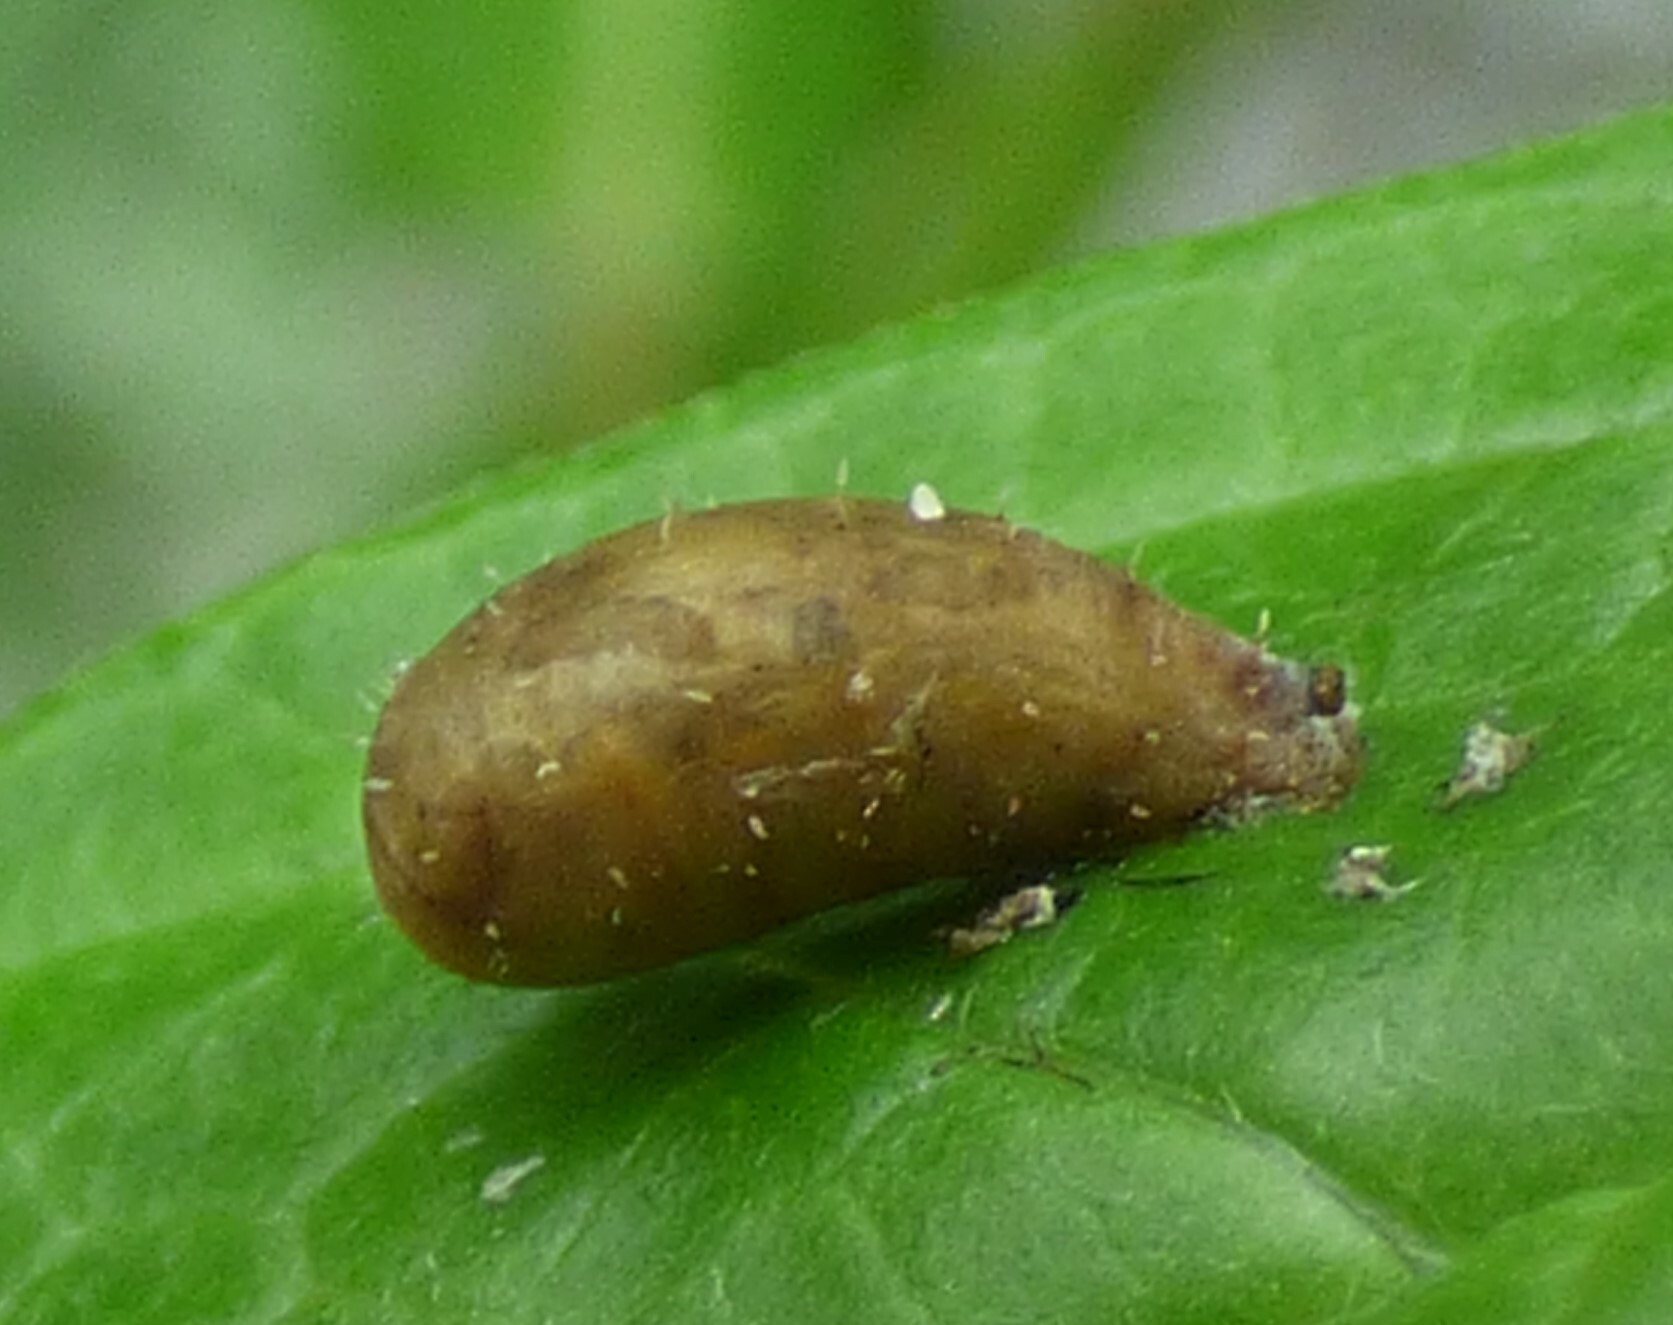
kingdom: Animalia
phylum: Arthropoda
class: Insecta
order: Diptera
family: Syrphidae
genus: Dioprosopa
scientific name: Dioprosopa clavatus
